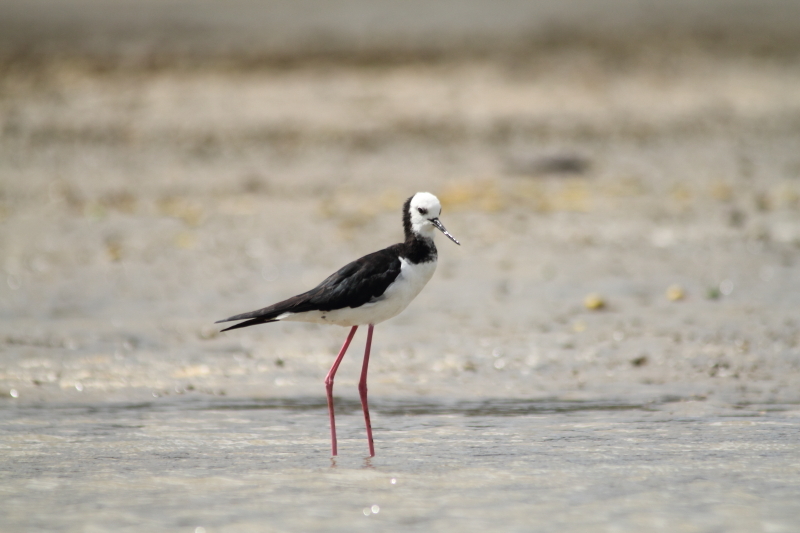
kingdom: Animalia
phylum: Chordata
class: Aves
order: Charadriiformes
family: Recurvirostridae
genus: Himantopus
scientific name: Himantopus leucocephalus
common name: White-headed stilt
